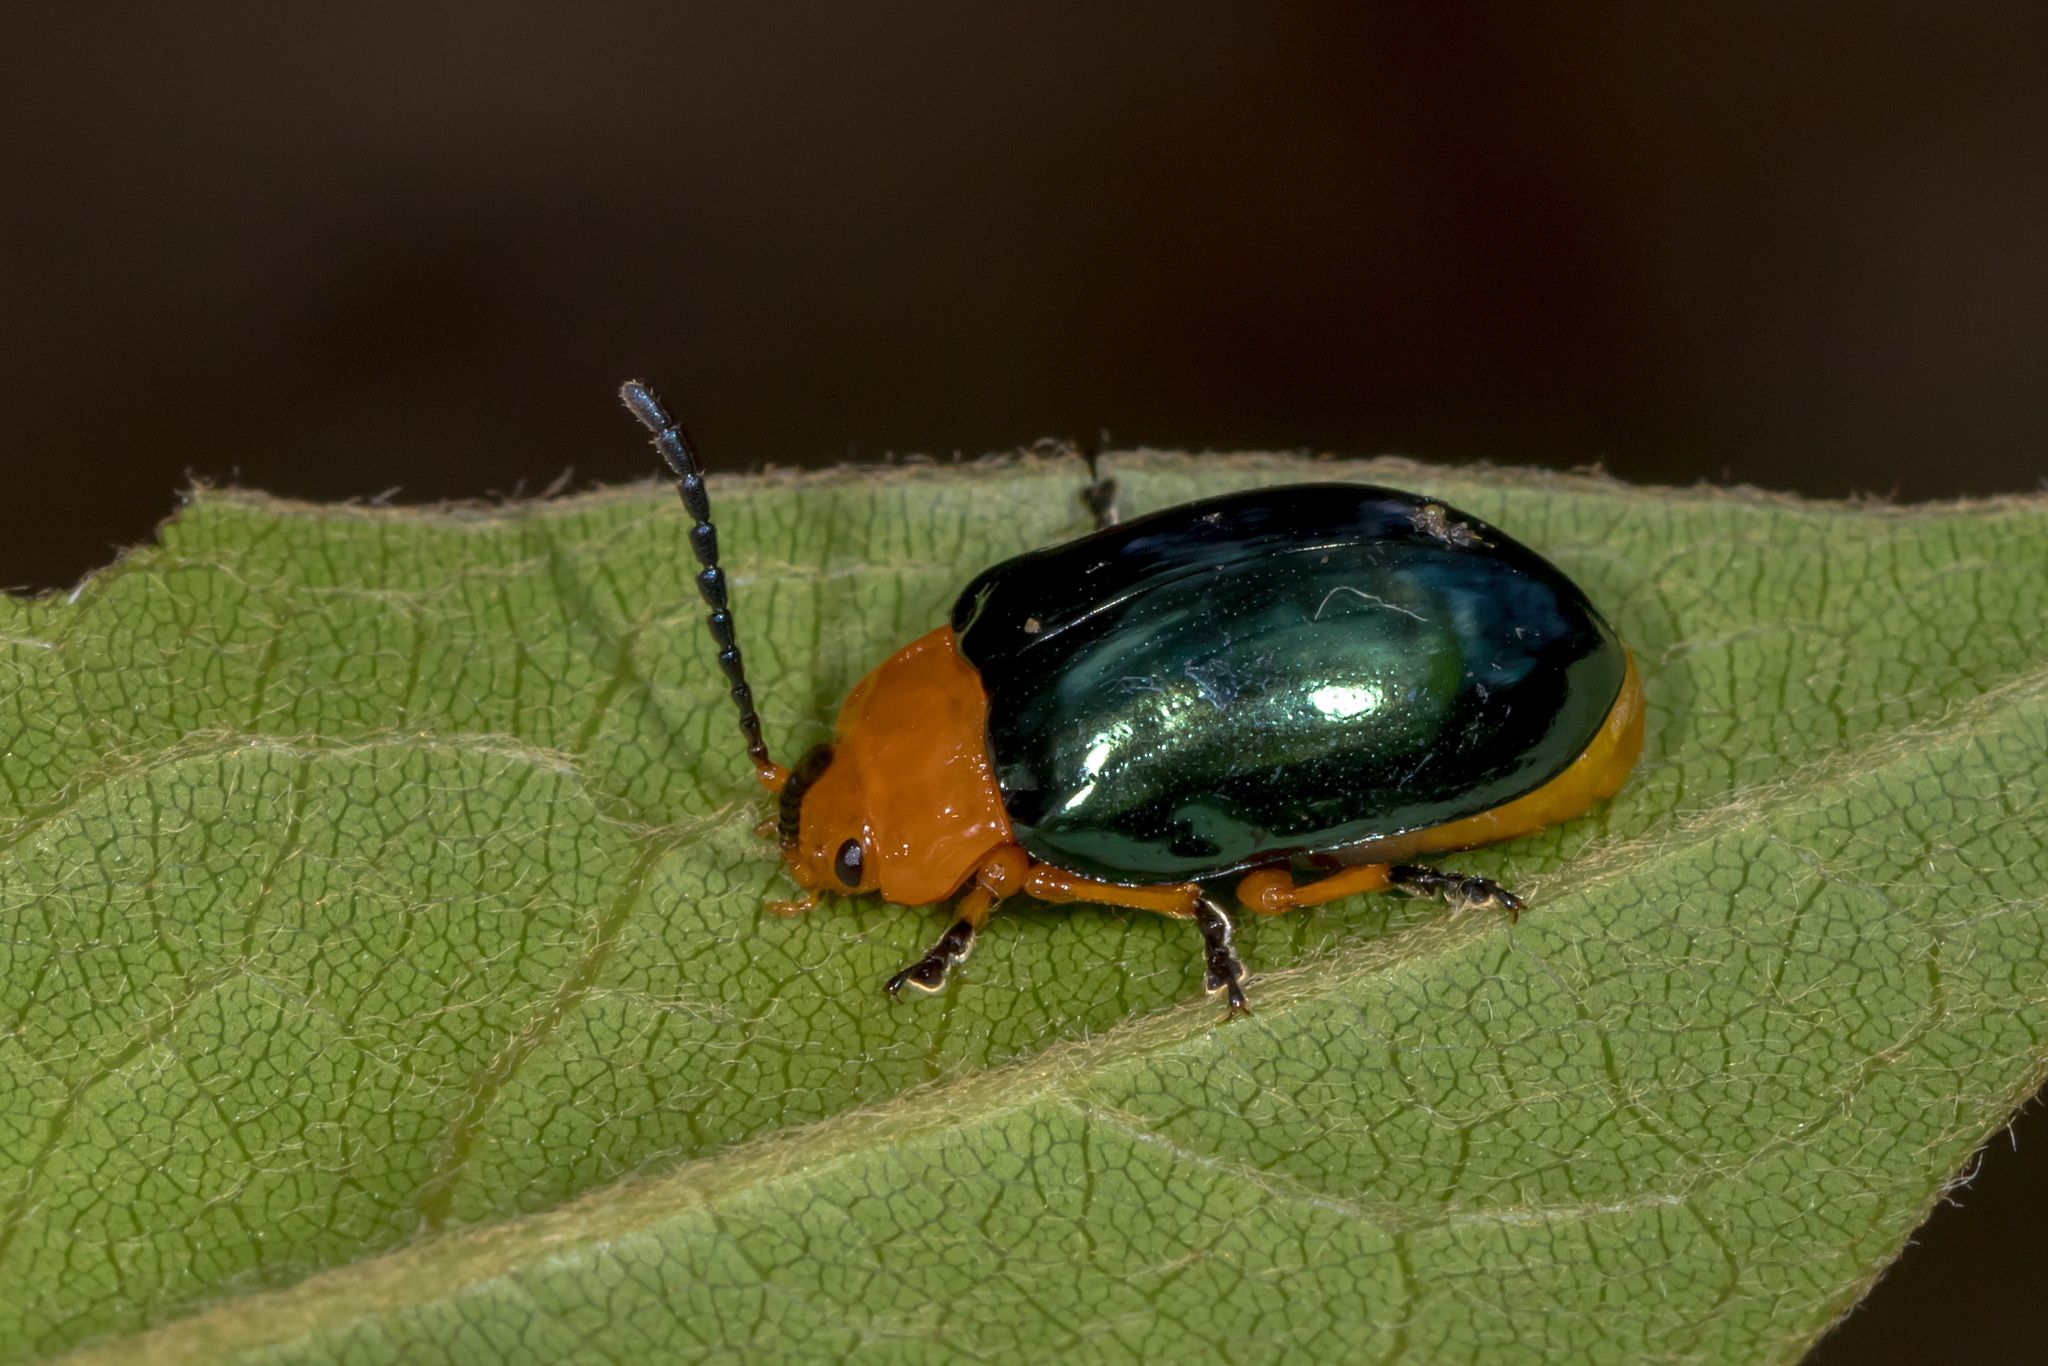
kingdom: Animalia
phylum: Arthropoda
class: Insecta
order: Coleoptera
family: Chrysomelidae
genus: Lamprolina
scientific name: Lamprolina
